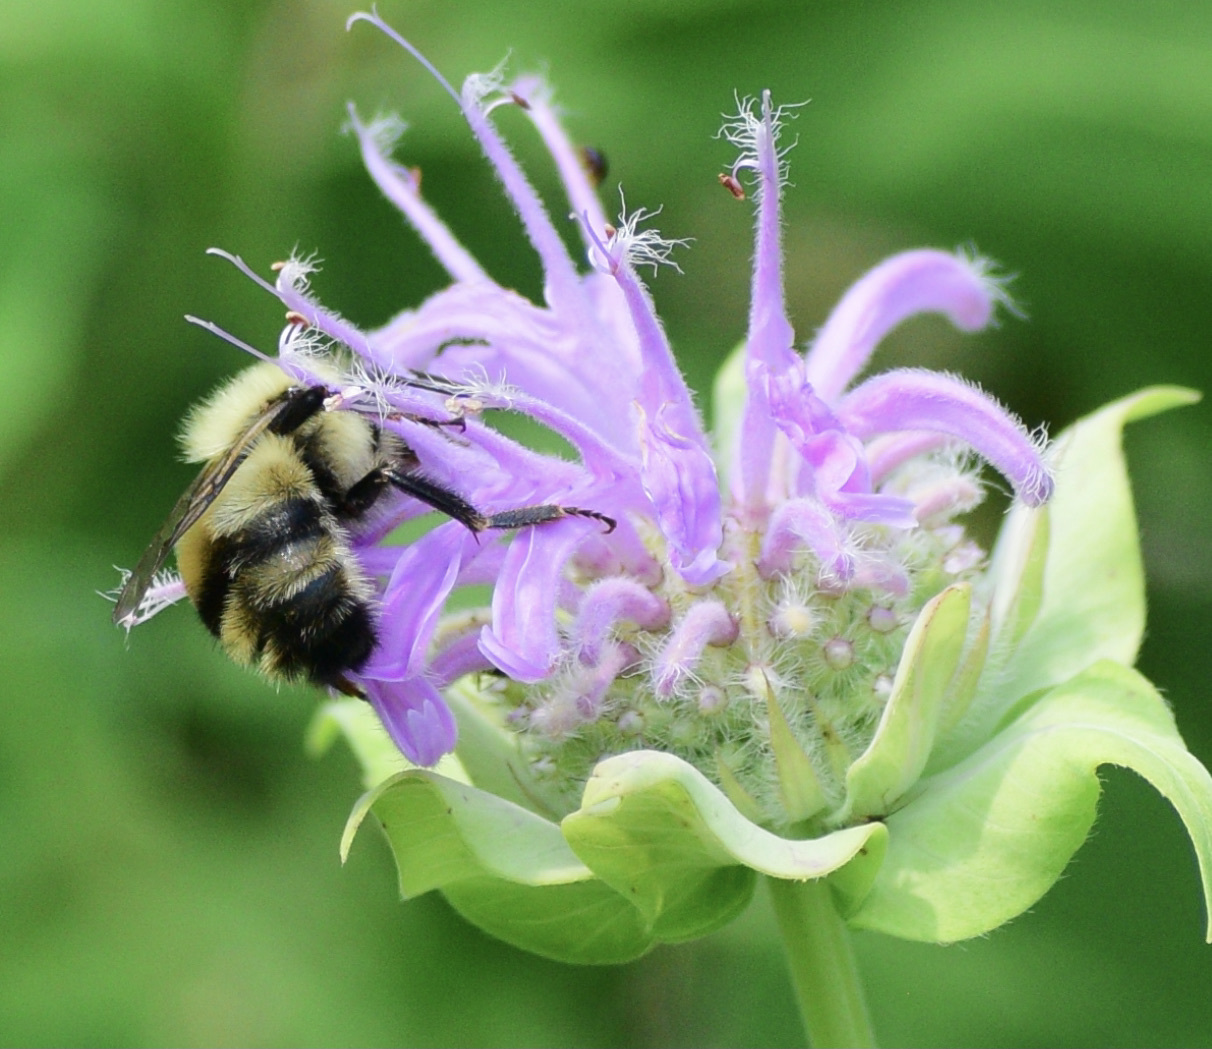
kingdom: Animalia
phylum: Arthropoda
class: Insecta
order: Hymenoptera
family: Apidae
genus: Bombus
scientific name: Bombus bimaculatus
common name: Two-spotted bumble bee
